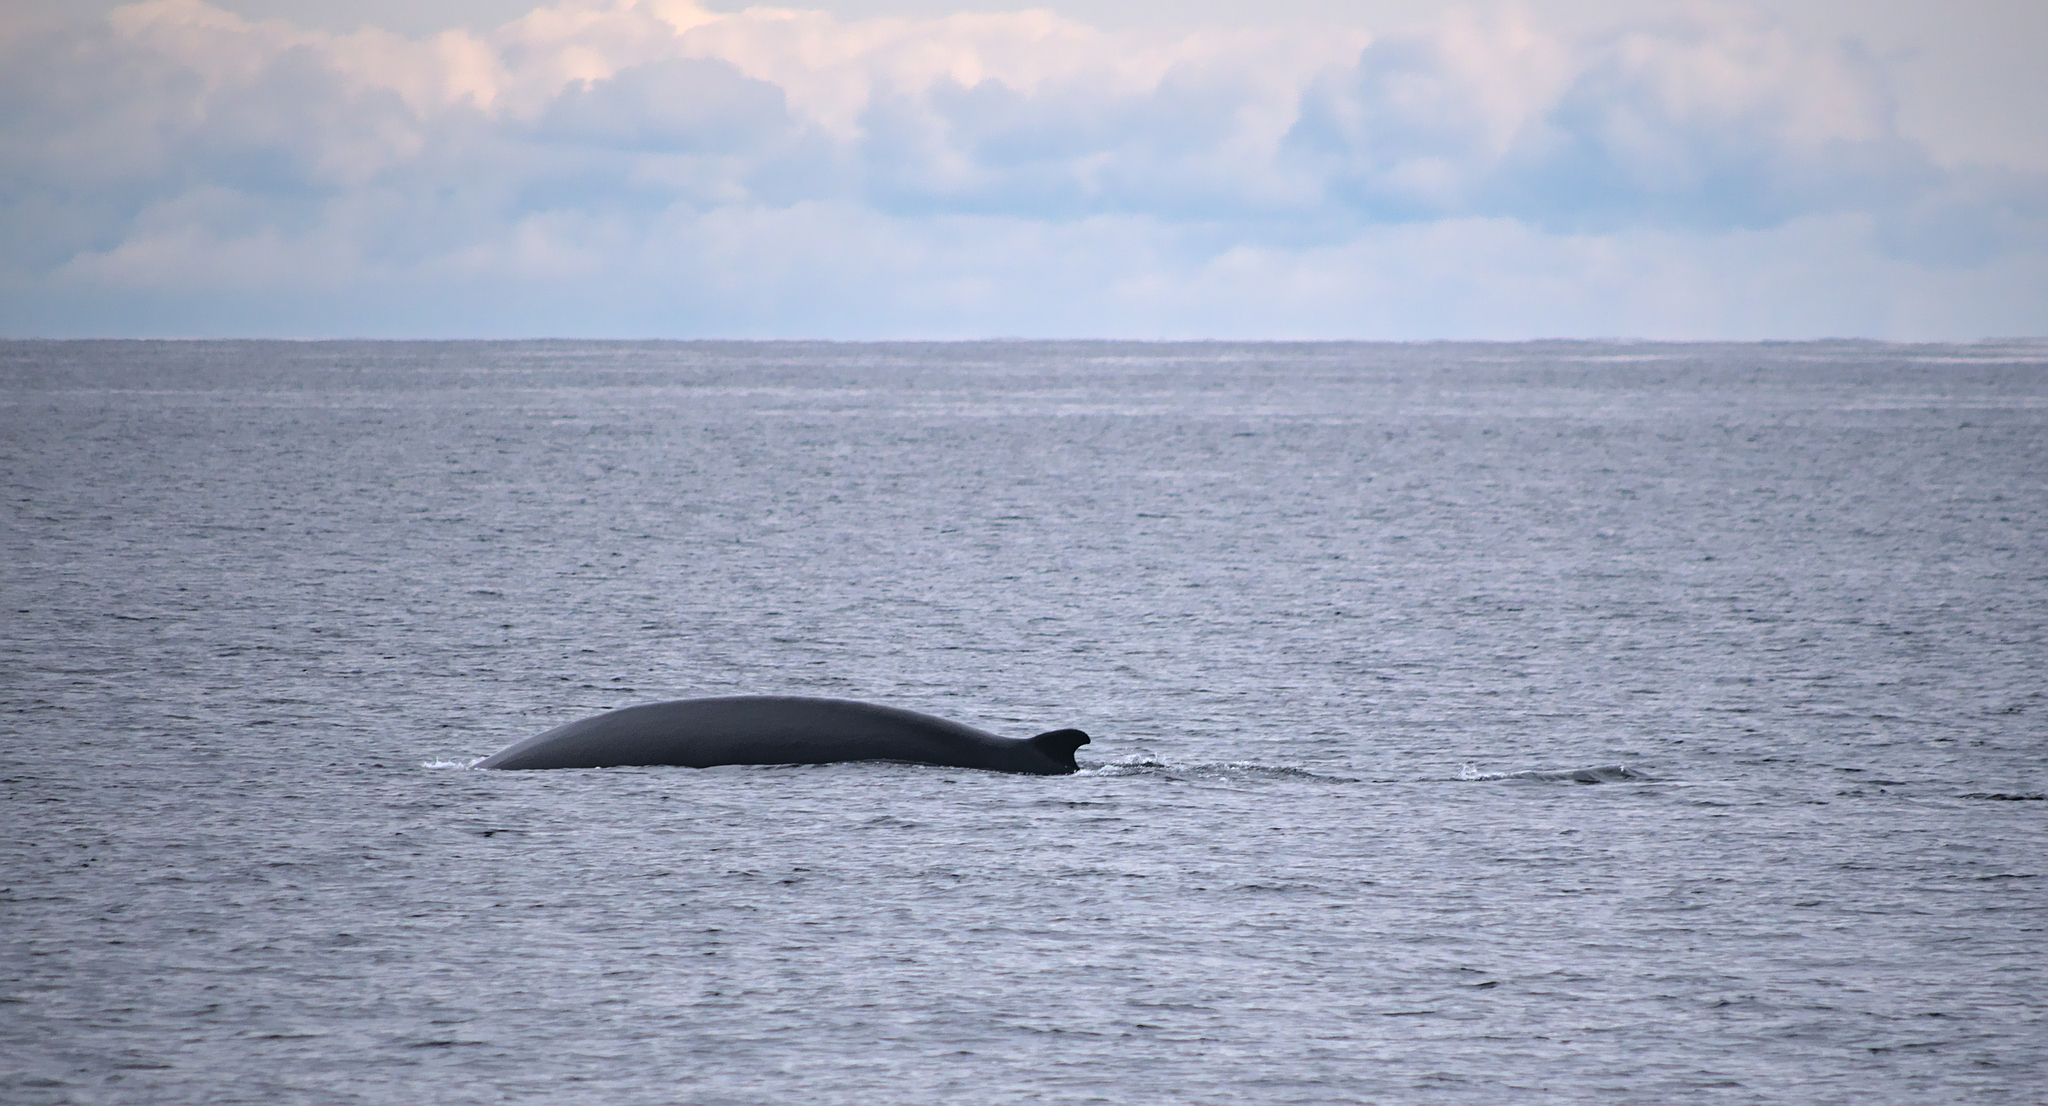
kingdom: Animalia
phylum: Chordata
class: Mammalia
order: Cetacea
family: Balaenopteridae
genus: Balaenoptera
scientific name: Balaenoptera physalus
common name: Fin whale
